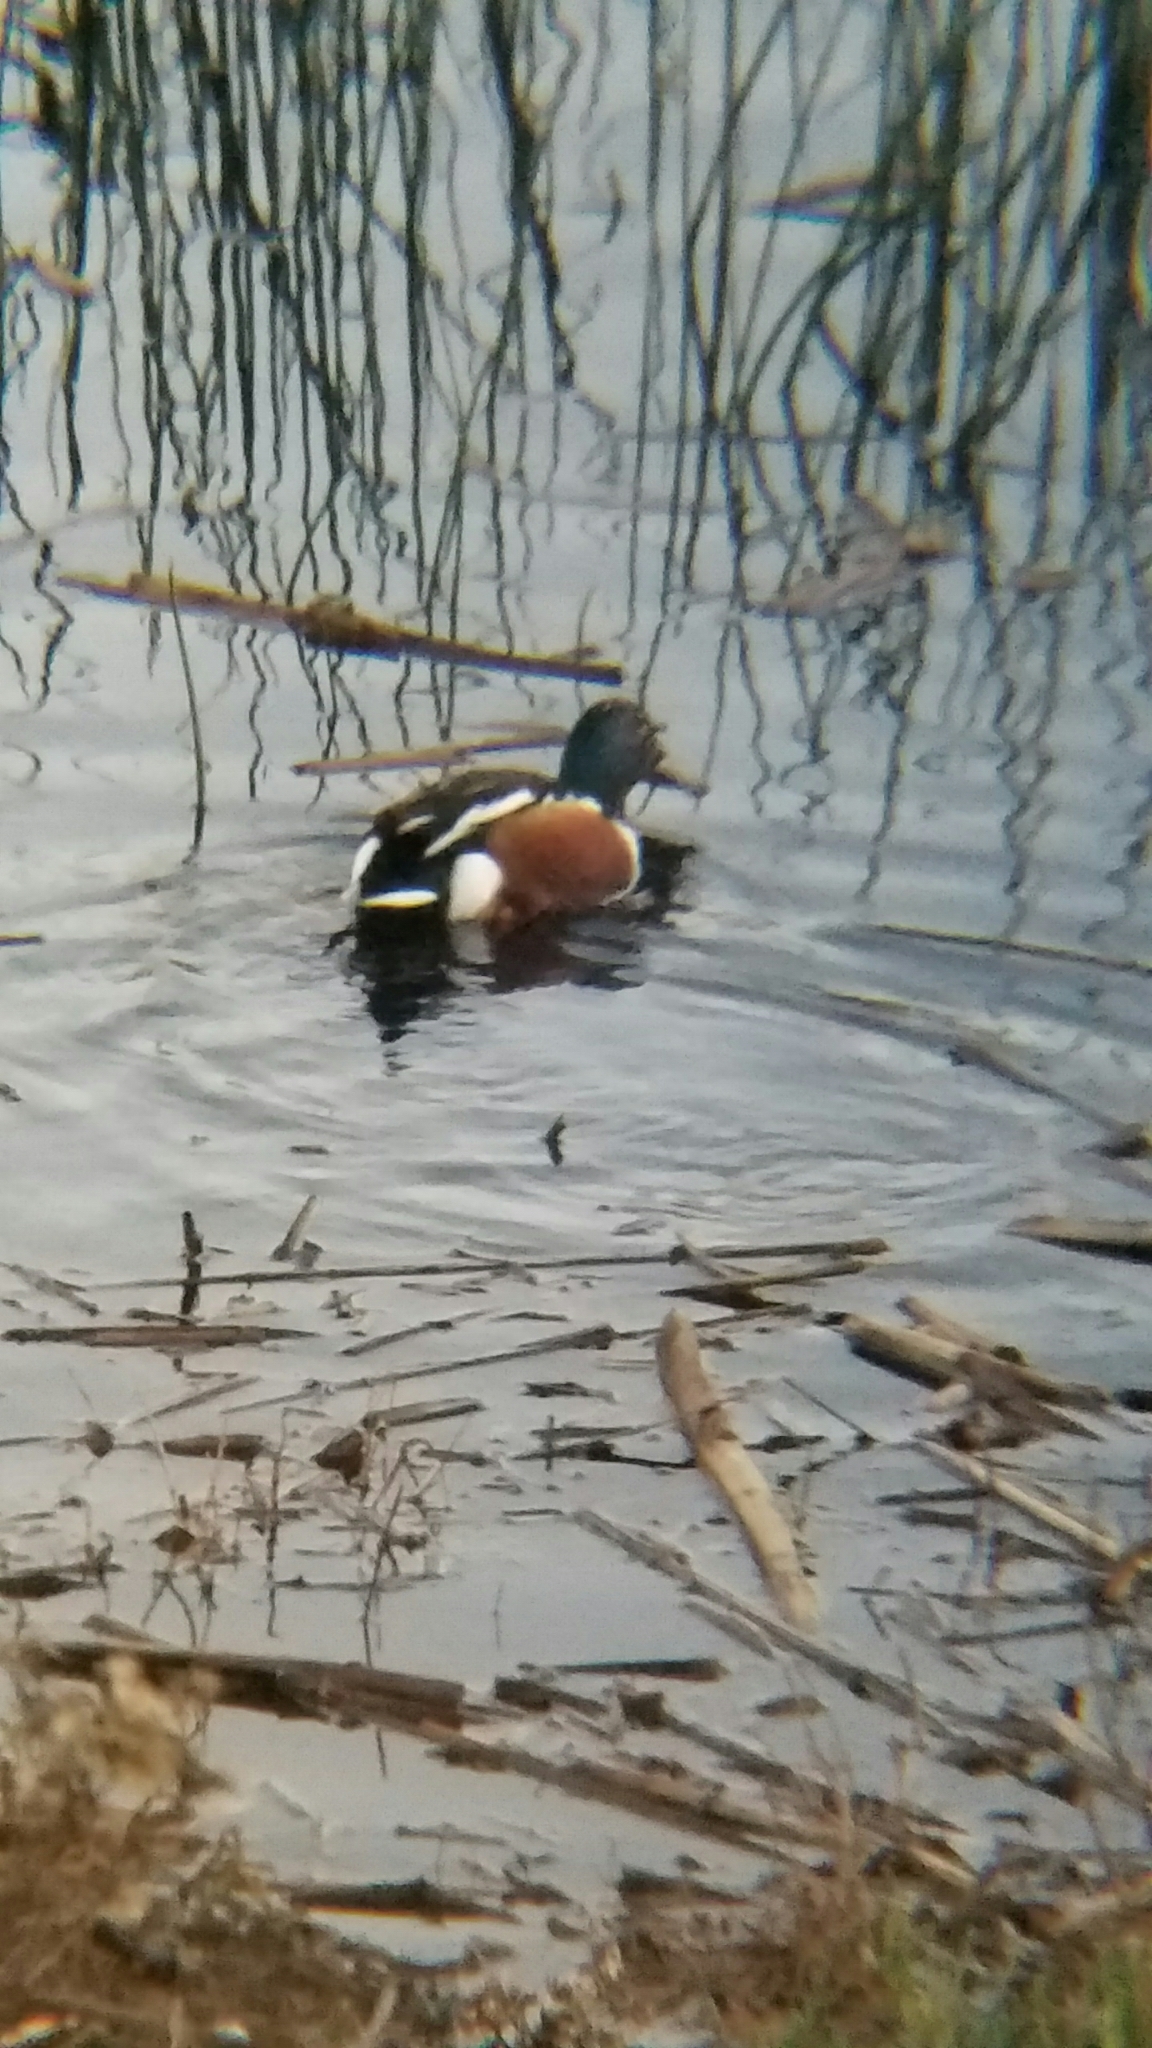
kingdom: Animalia
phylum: Chordata
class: Aves
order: Anseriformes
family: Anatidae
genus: Spatula
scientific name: Spatula clypeata
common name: Northern shoveler
